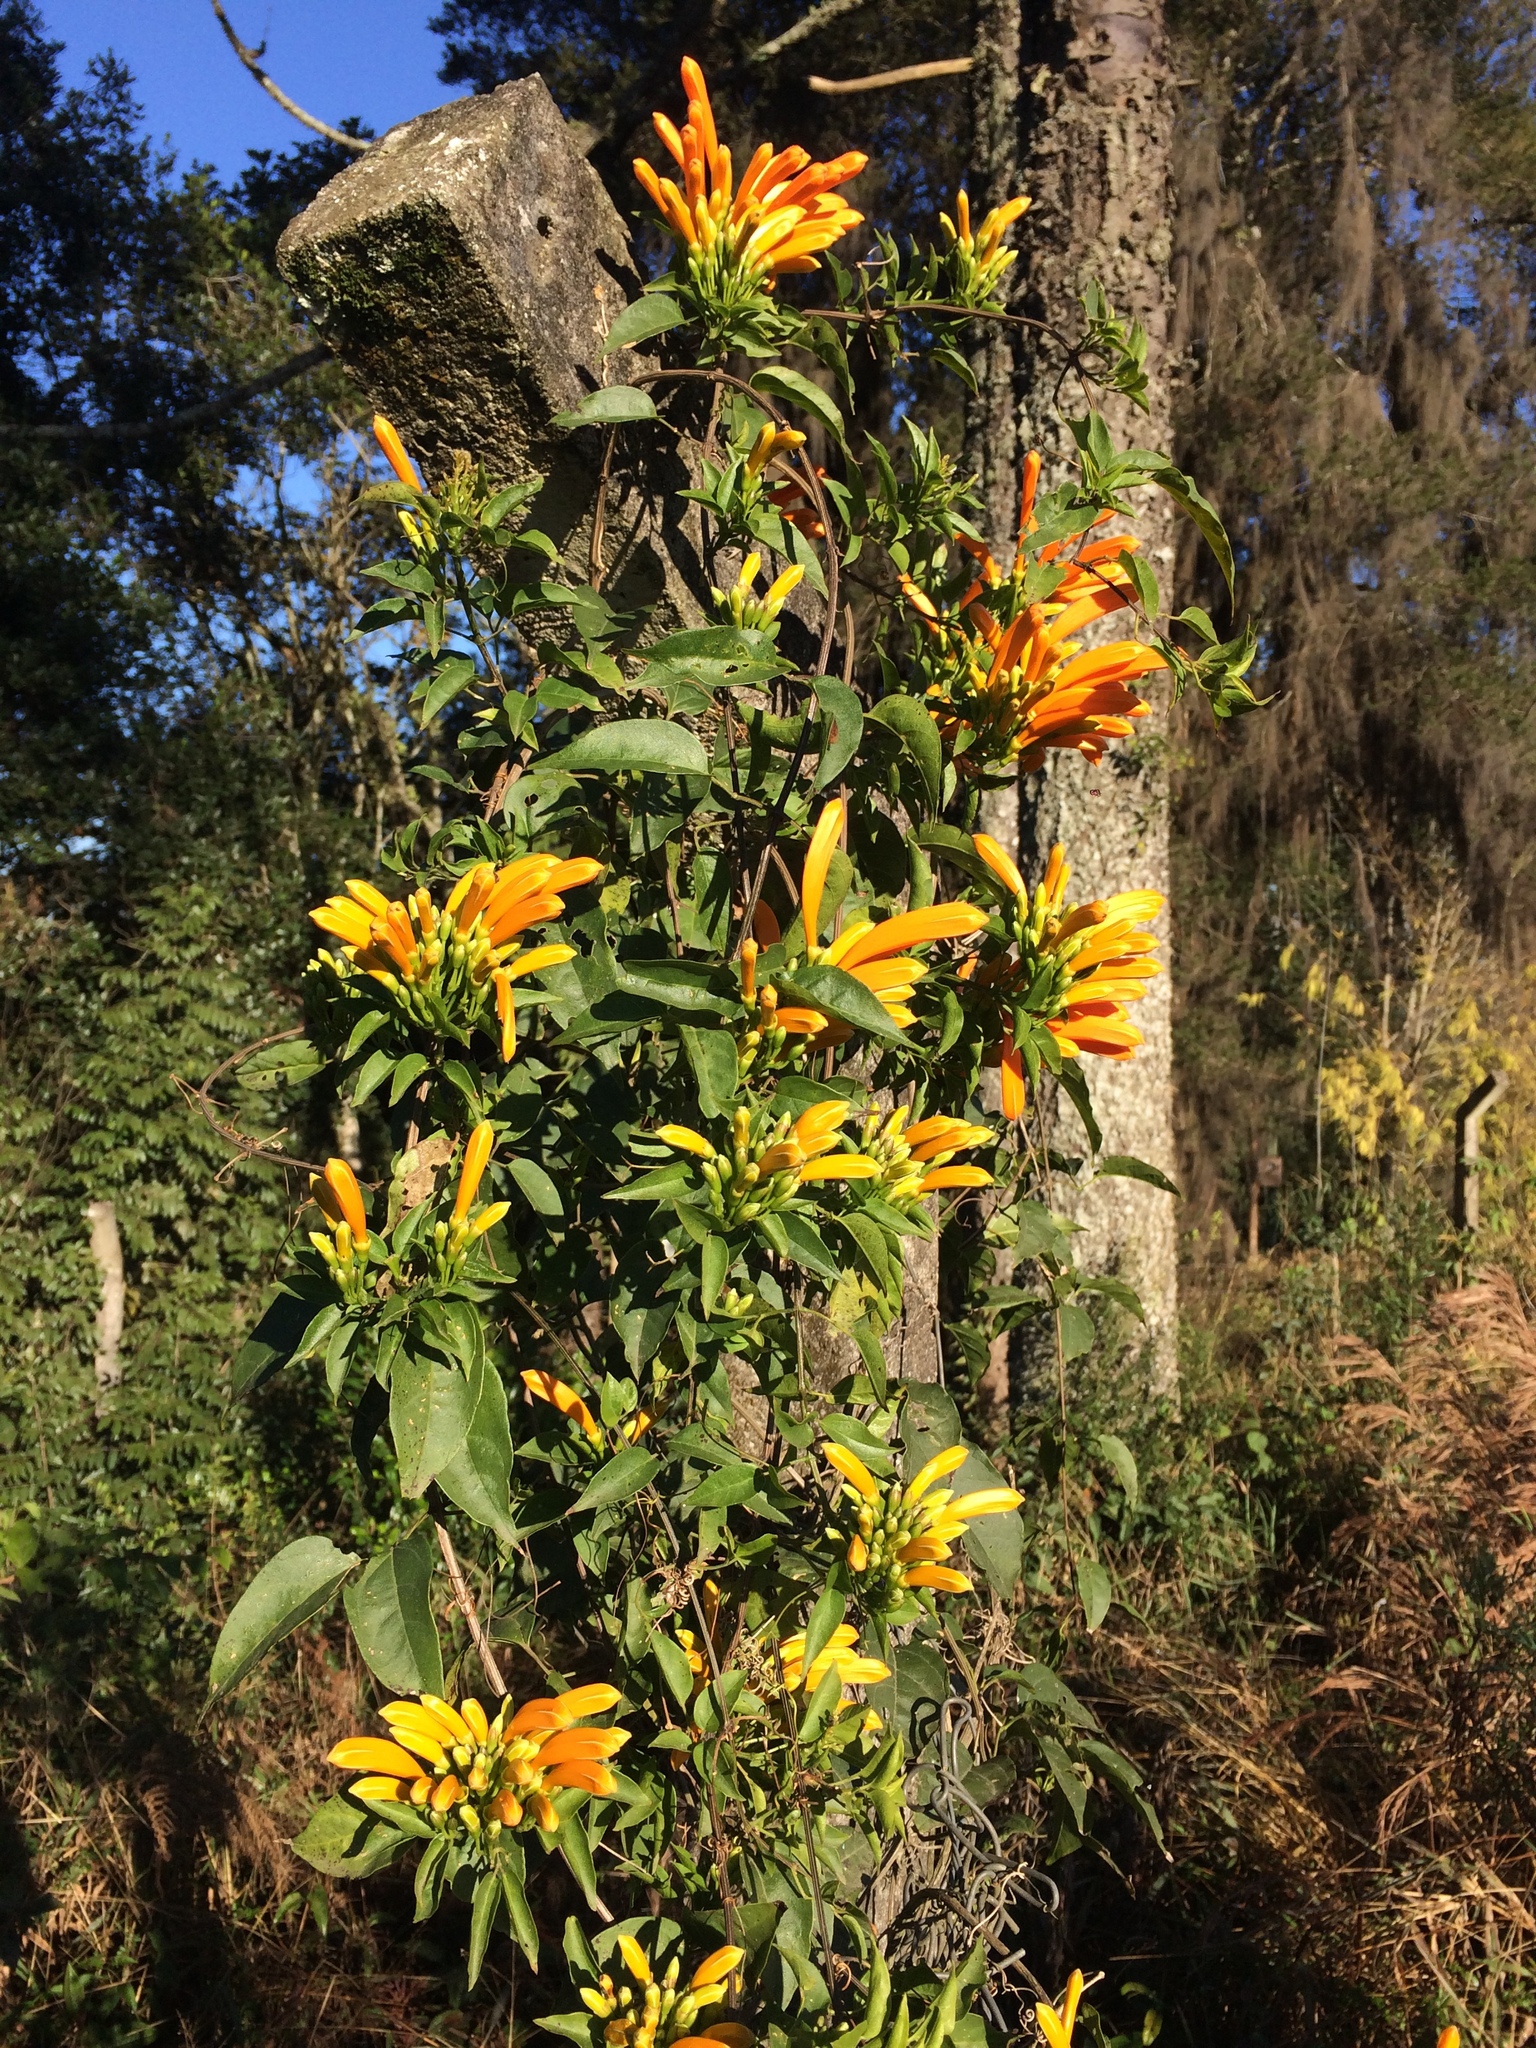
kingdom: Plantae
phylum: Tracheophyta
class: Magnoliopsida
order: Lamiales
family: Bignoniaceae
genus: Pyrostegia
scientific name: Pyrostegia venusta
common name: Flamevine
